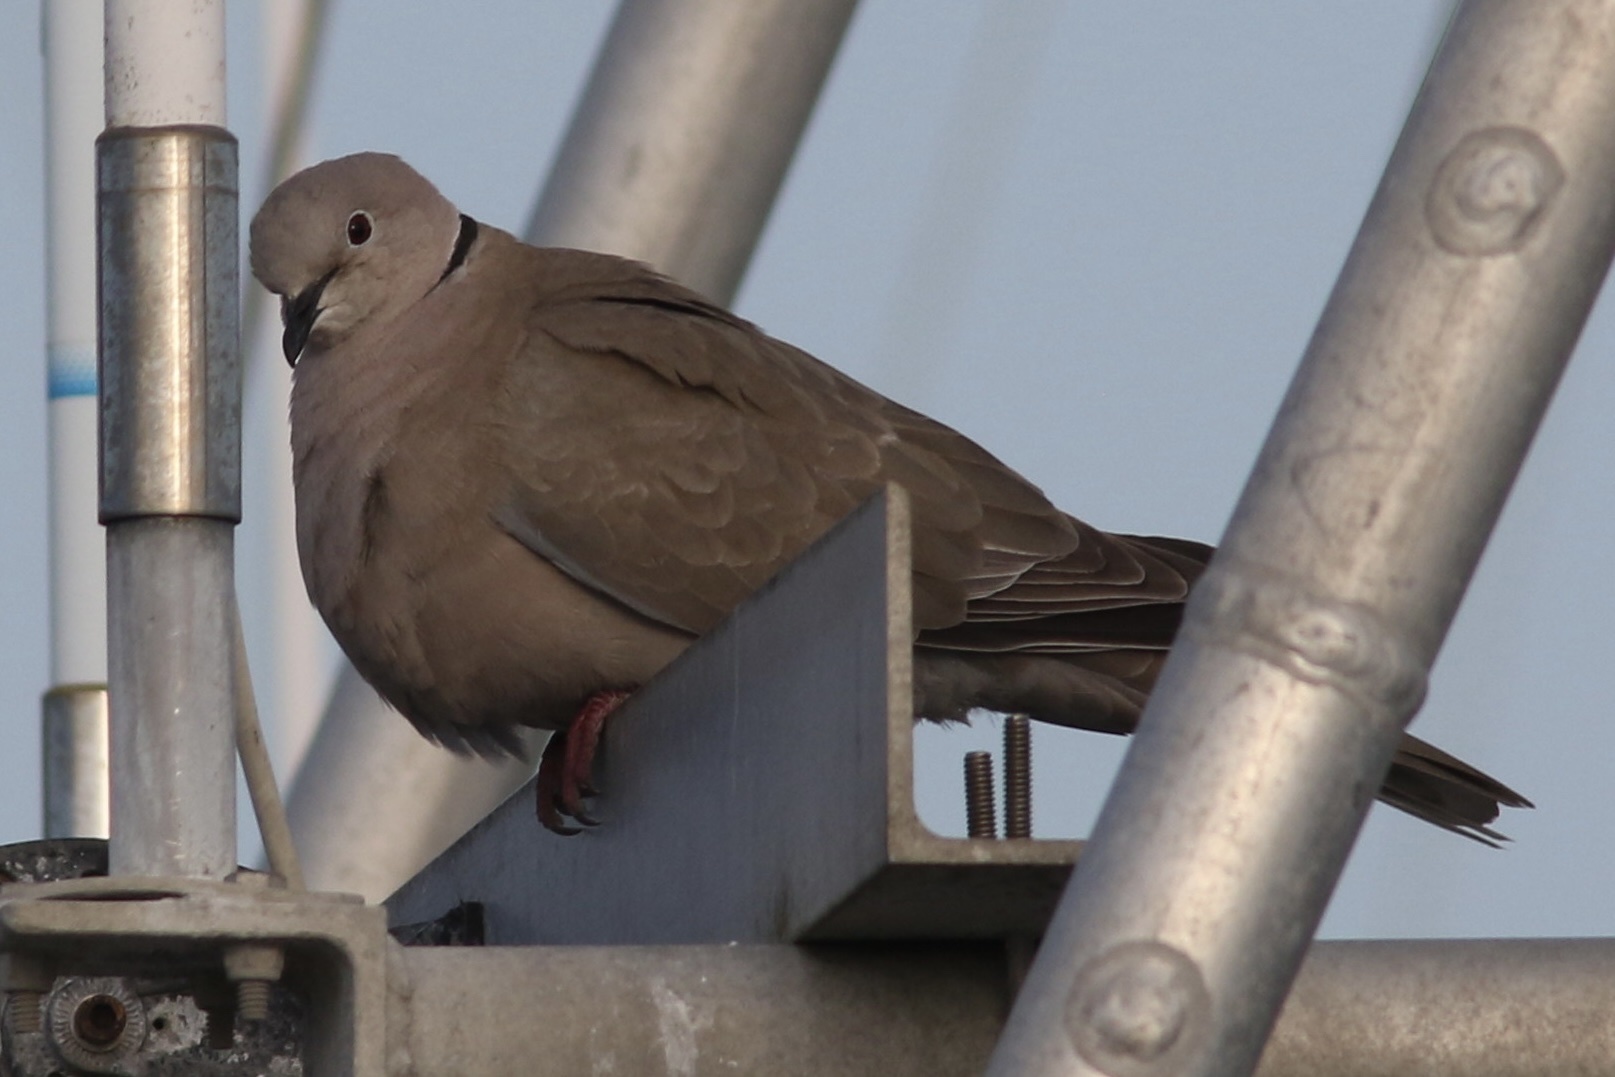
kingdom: Animalia
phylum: Chordata
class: Aves
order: Columbiformes
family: Columbidae
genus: Streptopelia
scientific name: Streptopelia decaocto
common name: Eurasian collared dove
